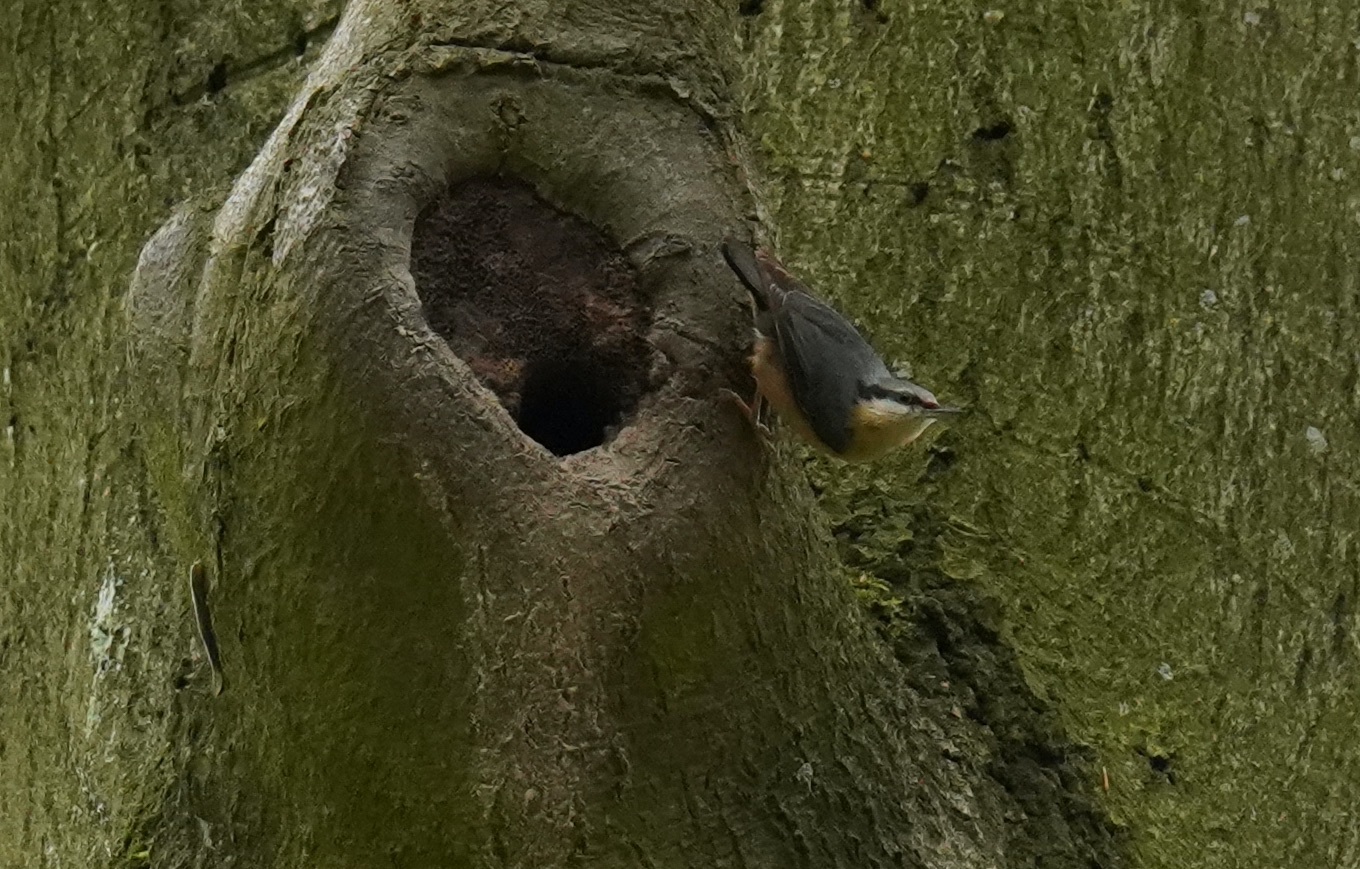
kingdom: Animalia
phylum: Chordata
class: Aves
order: Passeriformes
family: Sittidae
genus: Sitta
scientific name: Sitta europaea
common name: Eurasian nuthatch
